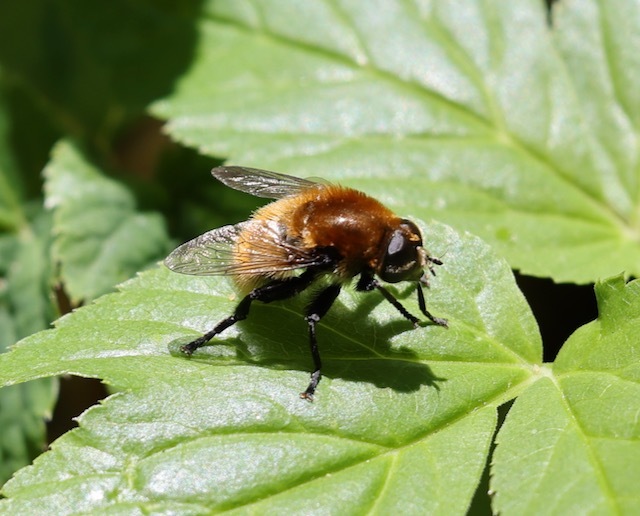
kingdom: Animalia
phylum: Arthropoda
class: Insecta
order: Diptera
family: Syrphidae
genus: Merodon
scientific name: Merodon equestris
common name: Greater bulb-fly
